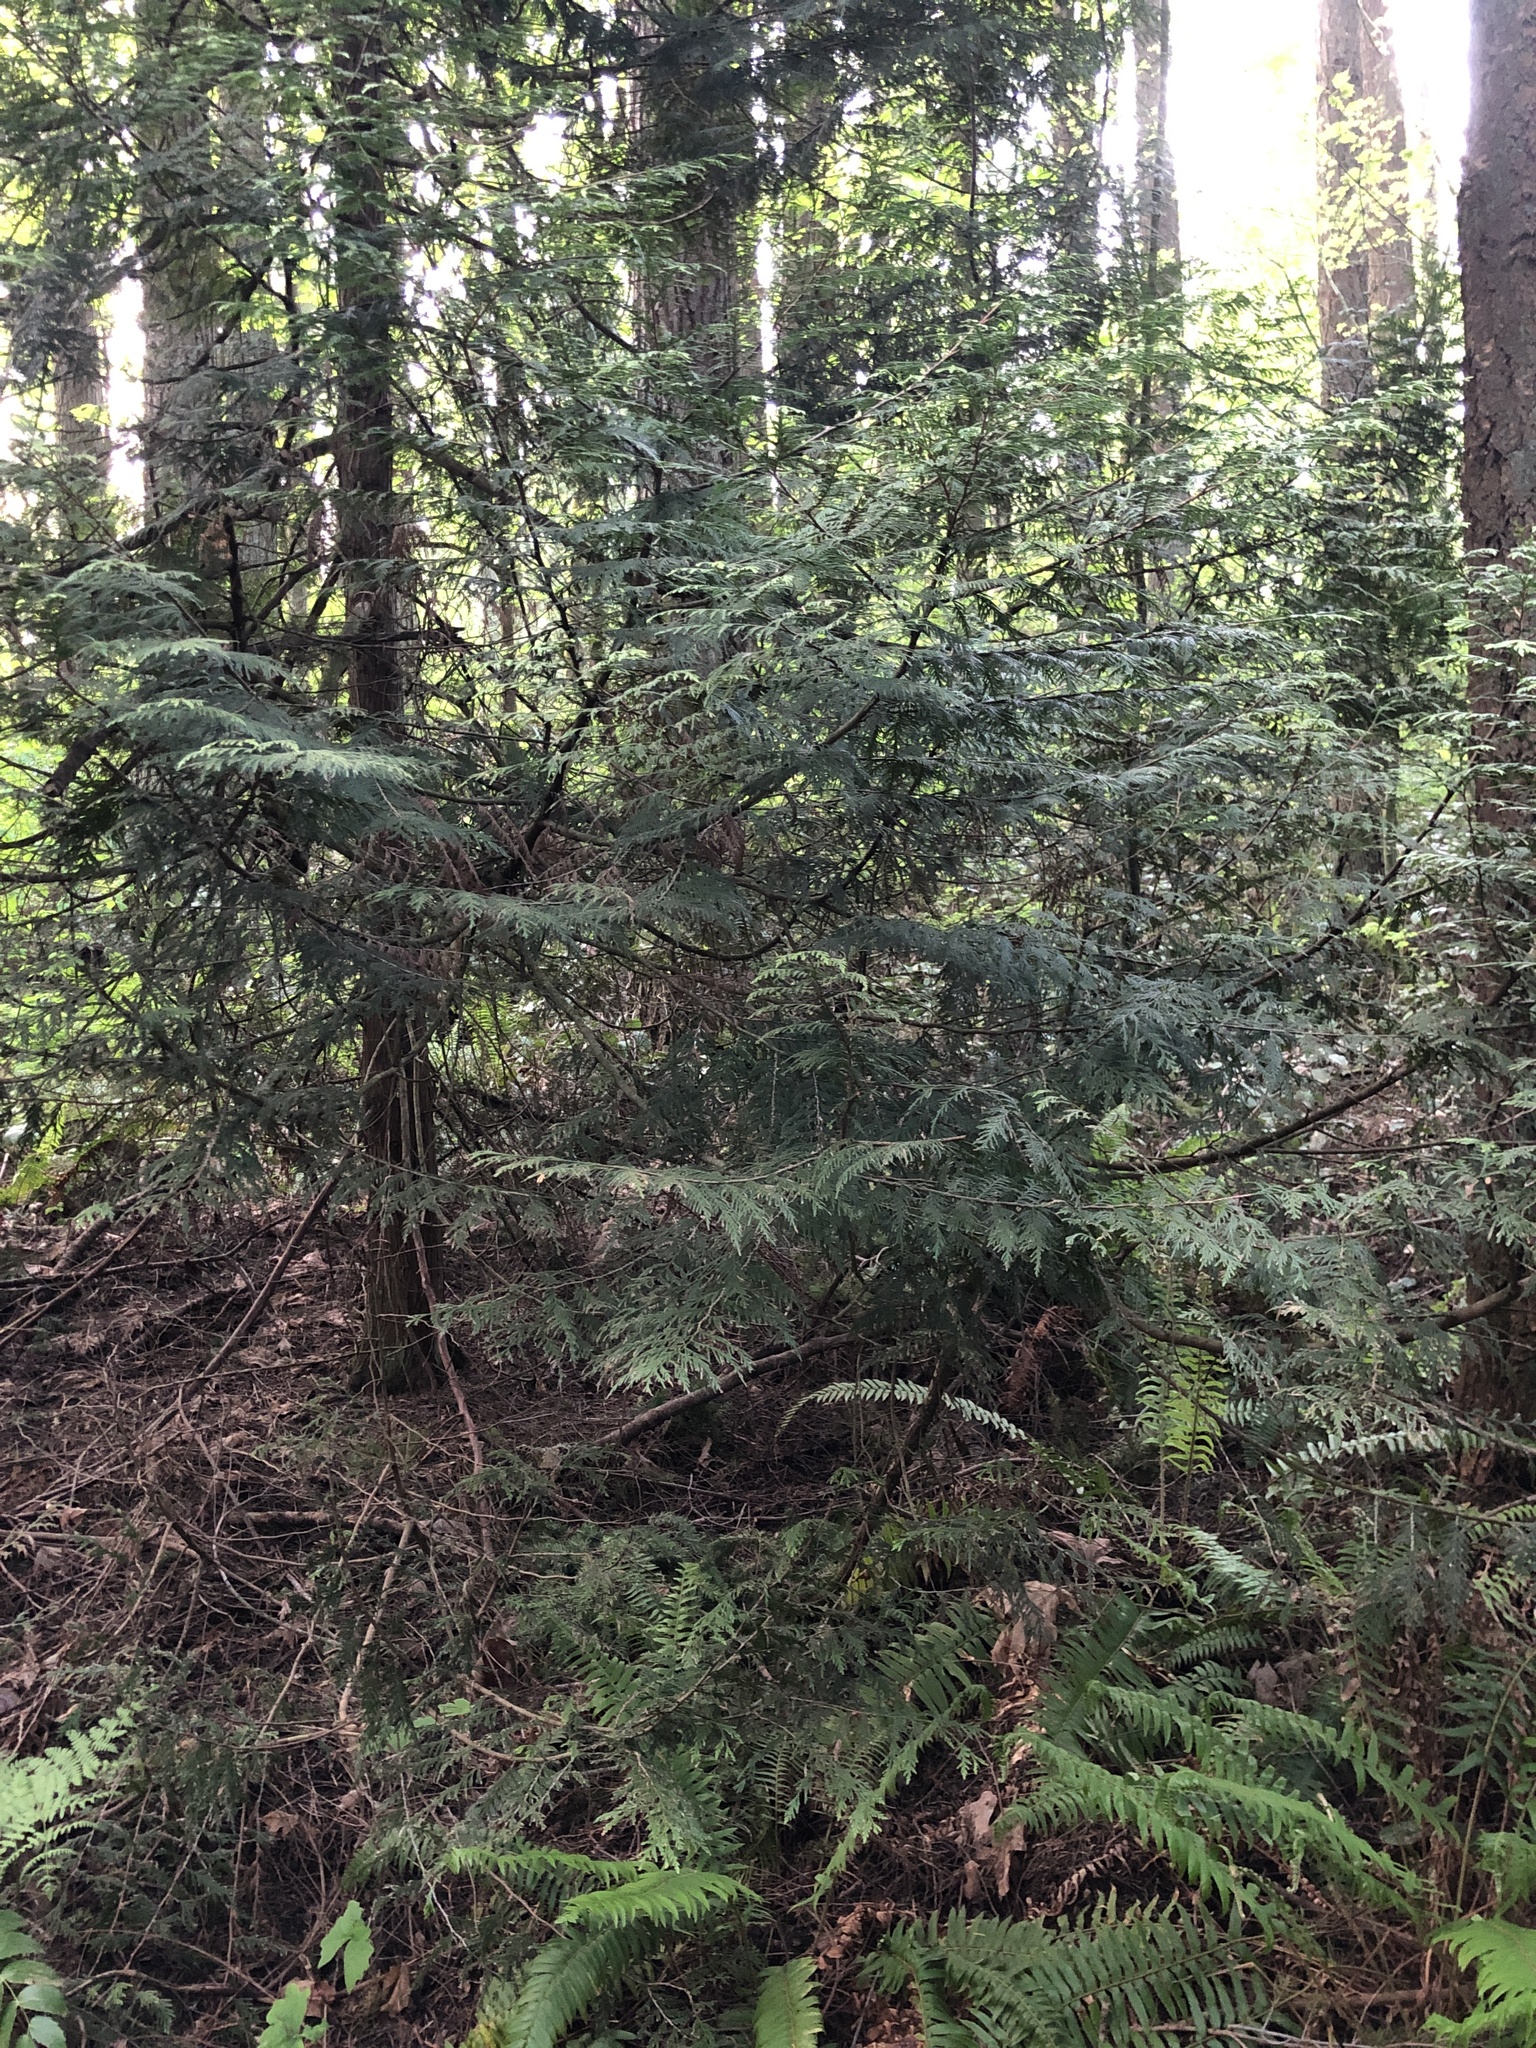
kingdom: Plantae
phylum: Tracheophyta
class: Pinopsida
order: Pinales
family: Cupressaceae
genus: Thuja
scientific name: Thuja plicata
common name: Western red-cedar
